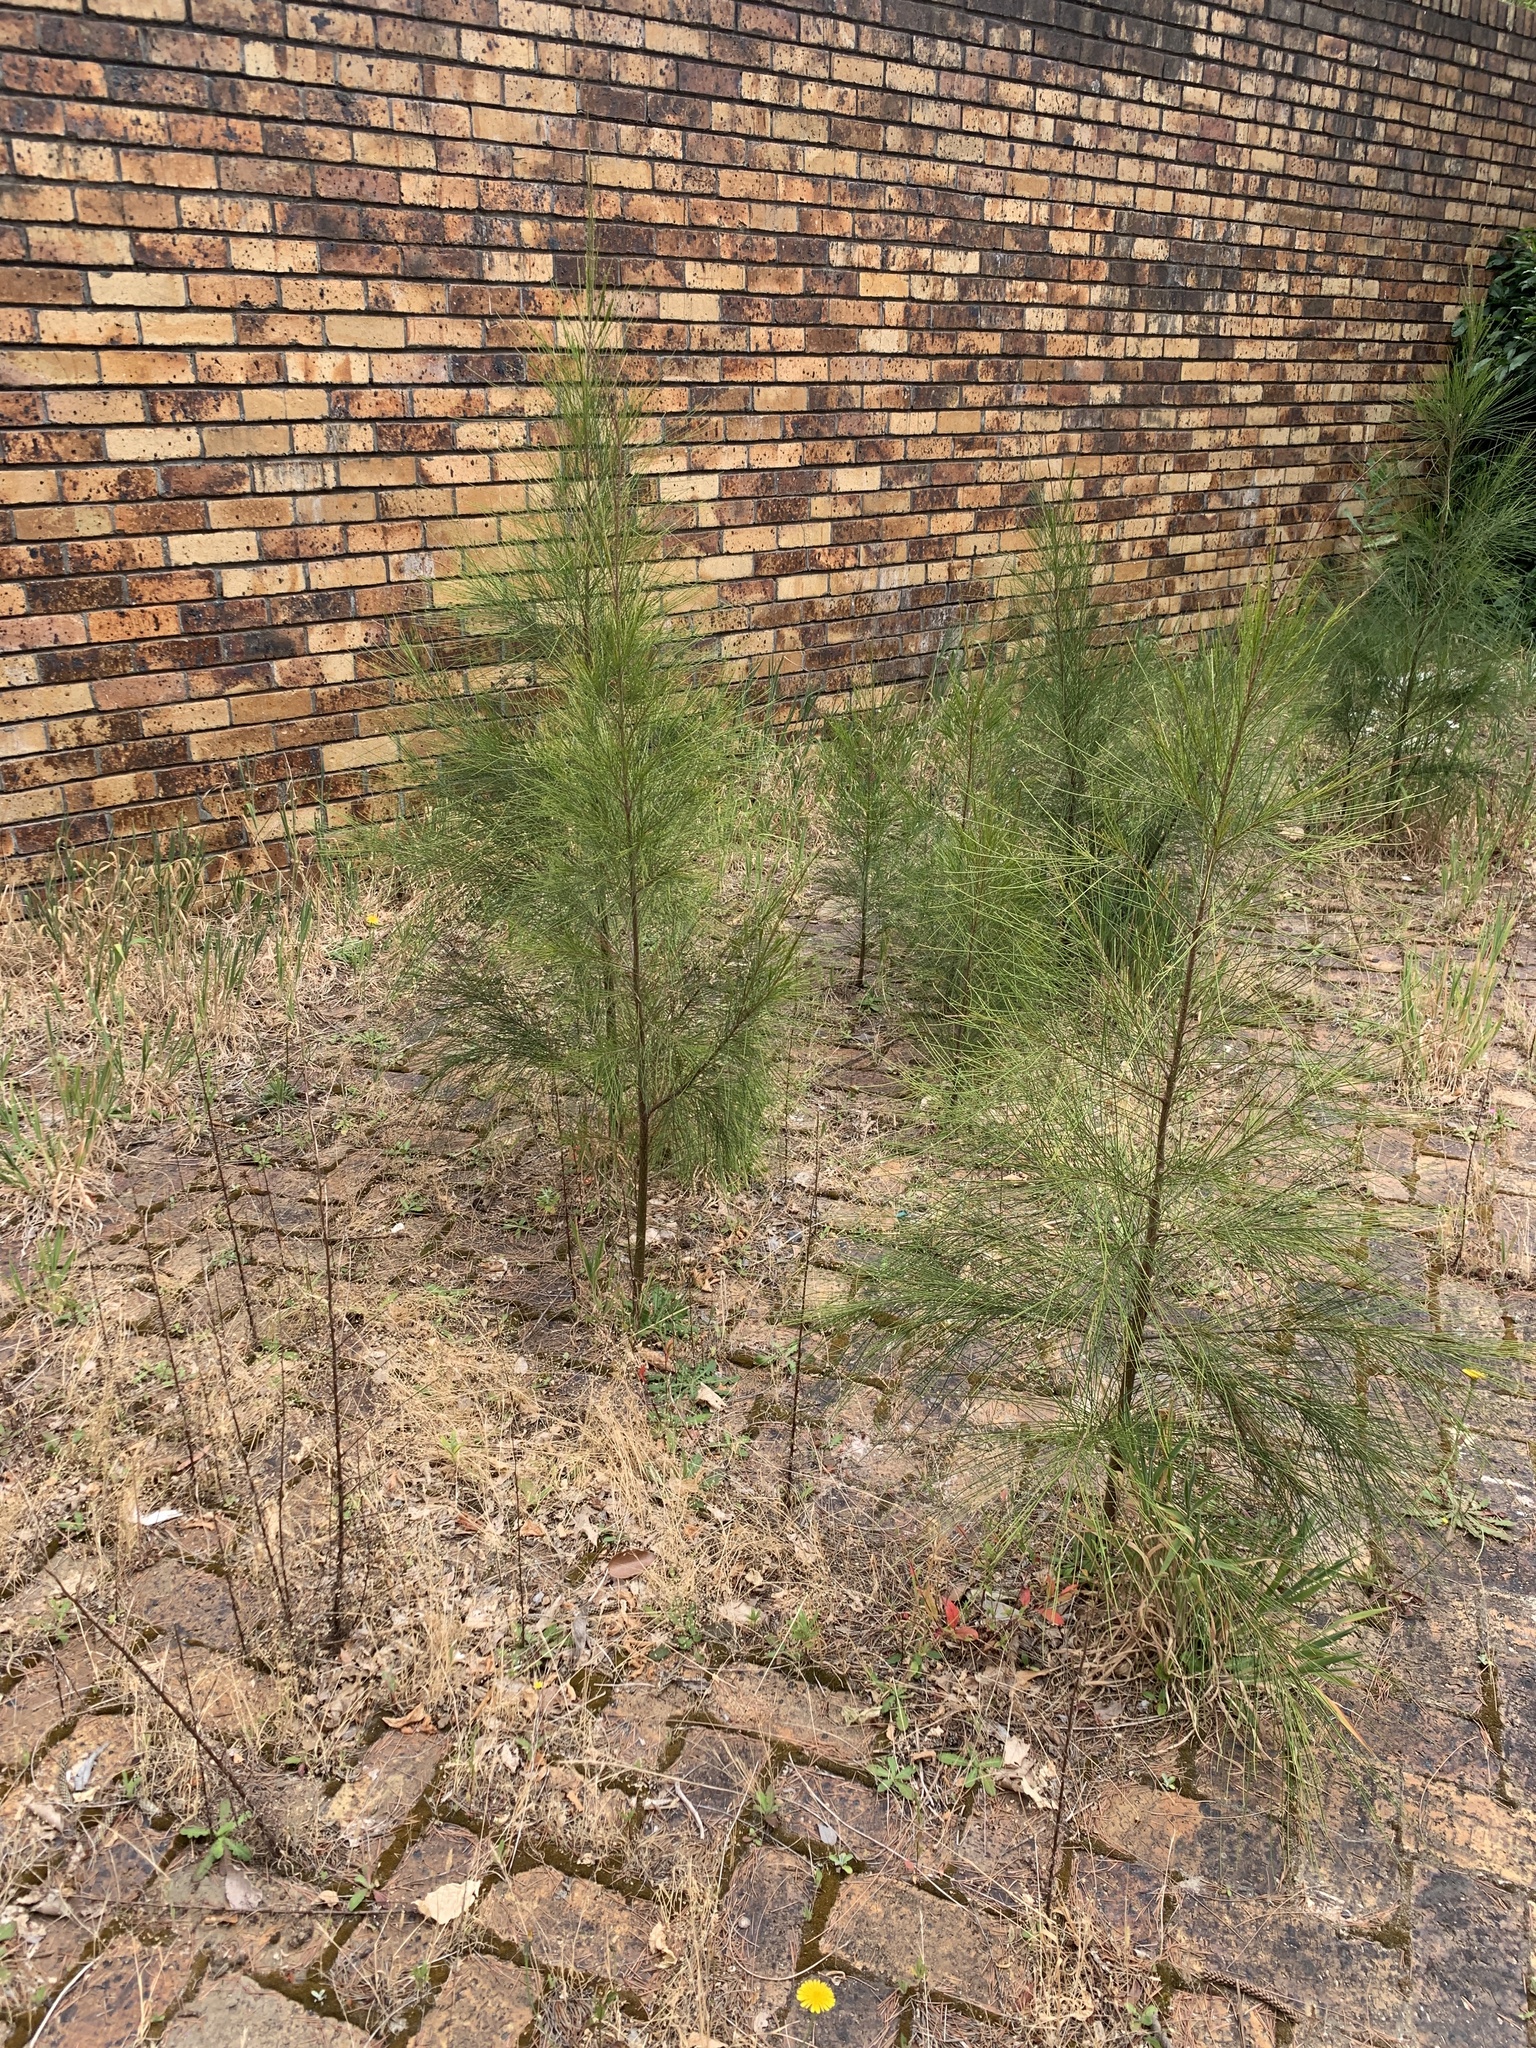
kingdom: Plantae
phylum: Tracheophyta
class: Magnoliopsida
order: Fagales
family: Casuarinaceae
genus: Casuarina
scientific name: Casuarina cunninghamiana
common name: River sheoak
